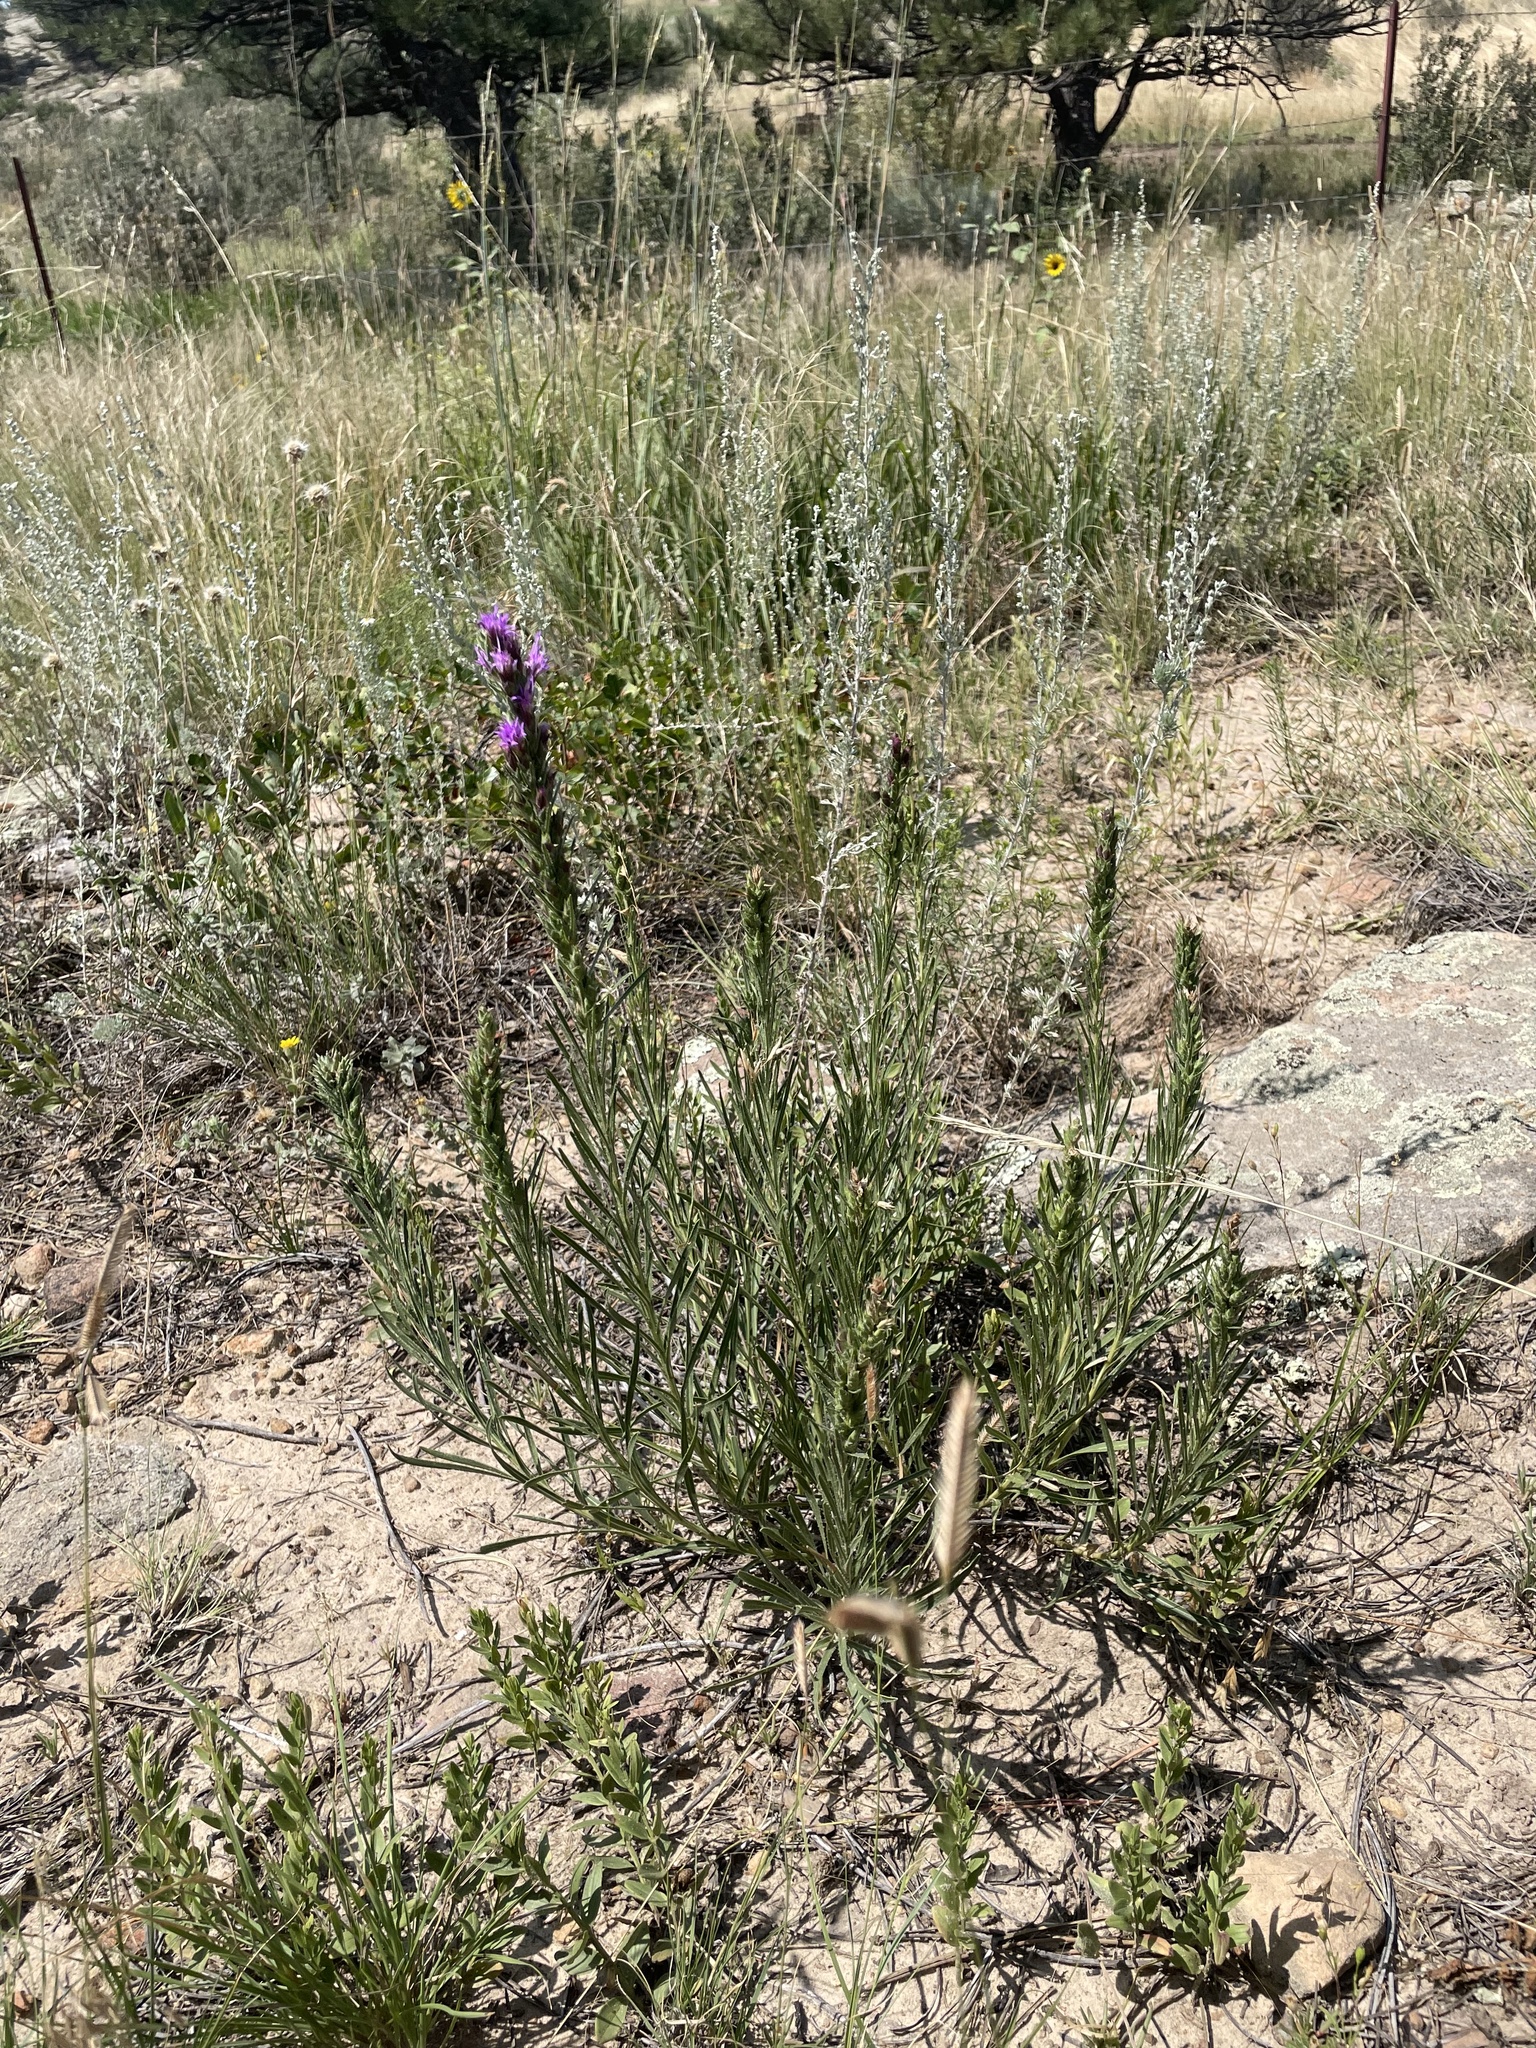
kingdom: Plantae
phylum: Tracheophyta
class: Magnoliopsida
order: Asterales
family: Asteraceae
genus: Liatris
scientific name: Liatris punctata
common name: Dotted gayfeather
